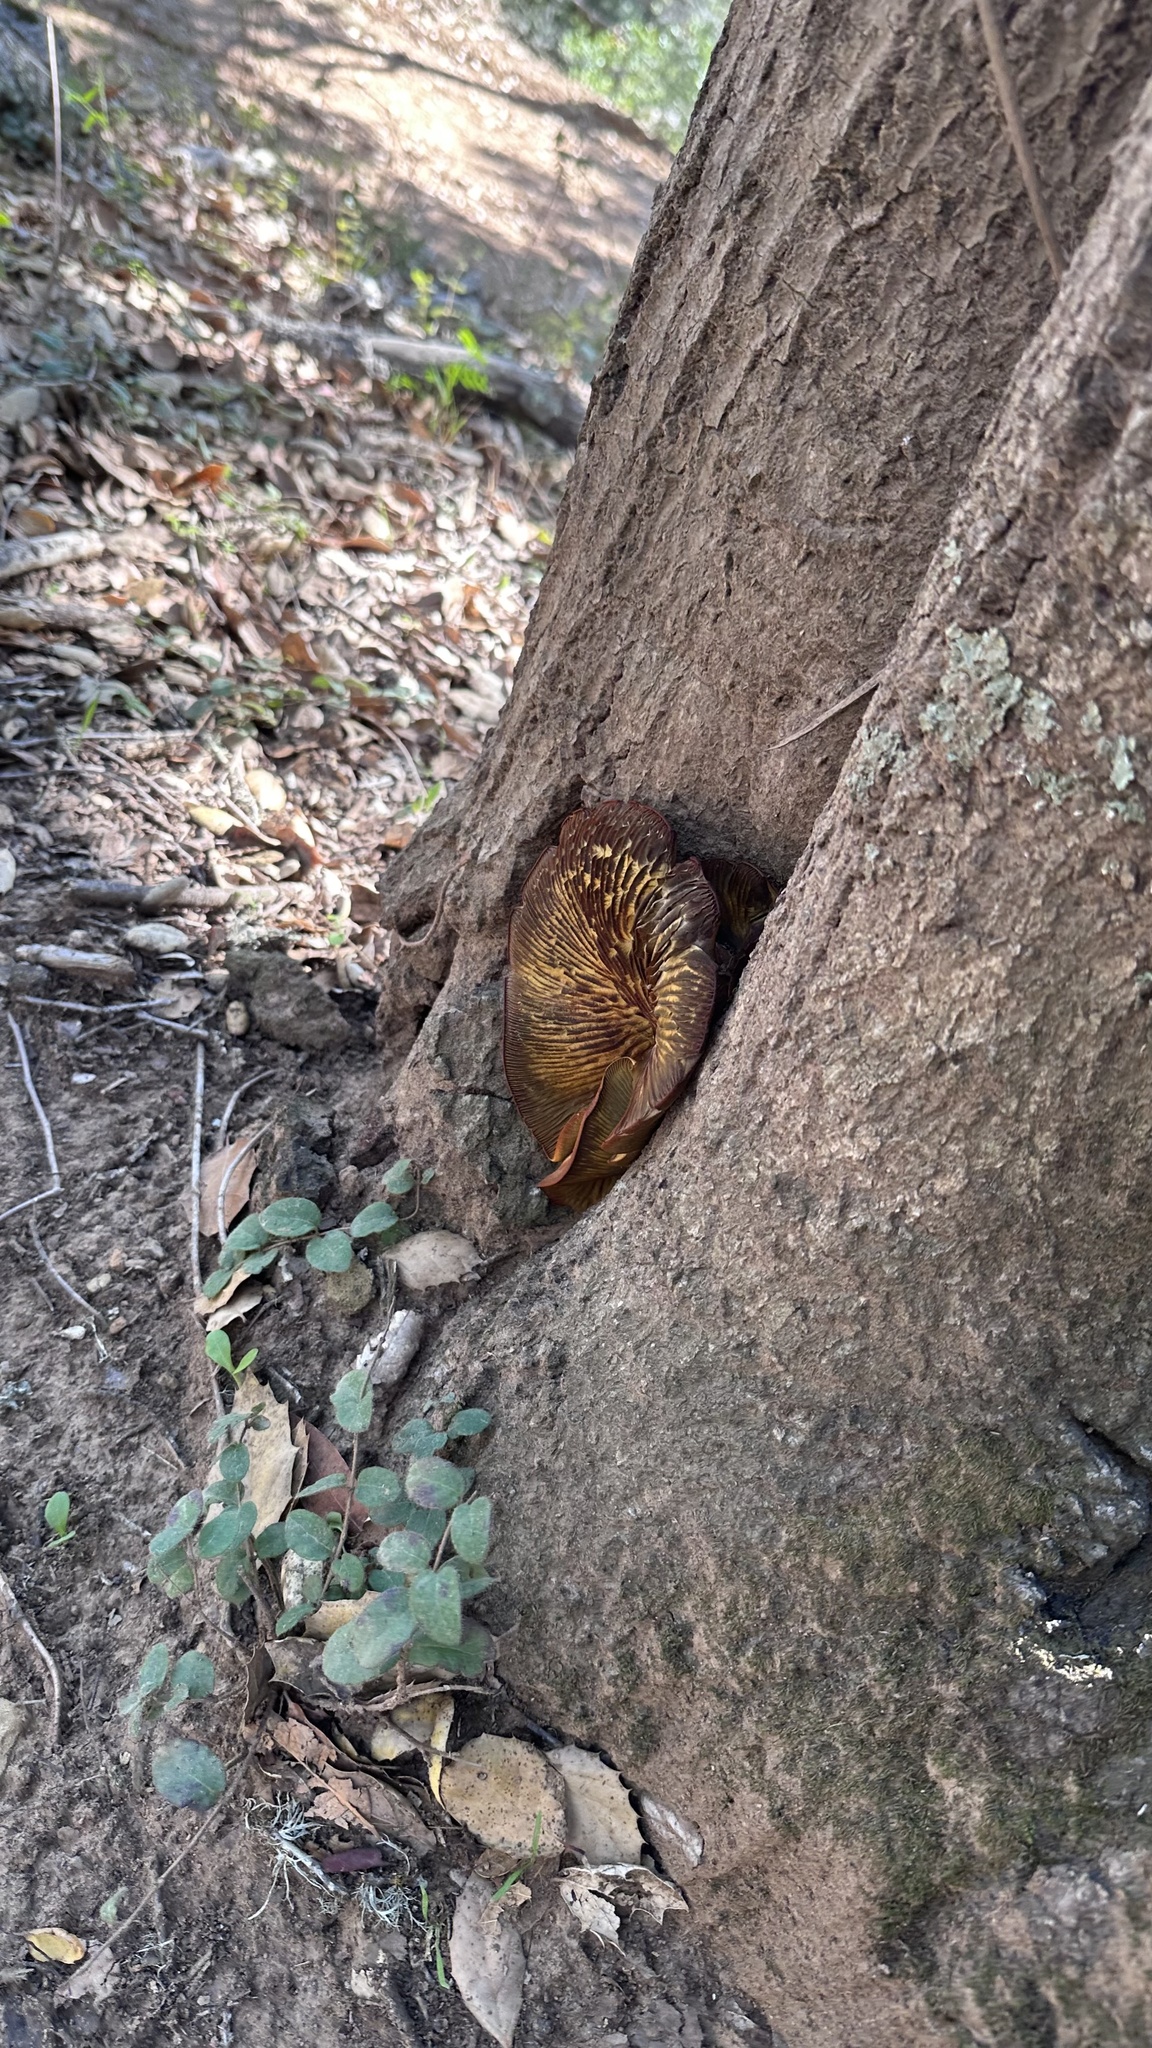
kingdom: Fungi
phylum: Basidiomycota
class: Agaricomycetes
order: Agaricales
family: Omphalotaceae
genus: Omphalotus
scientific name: Omphalotus olivascens
